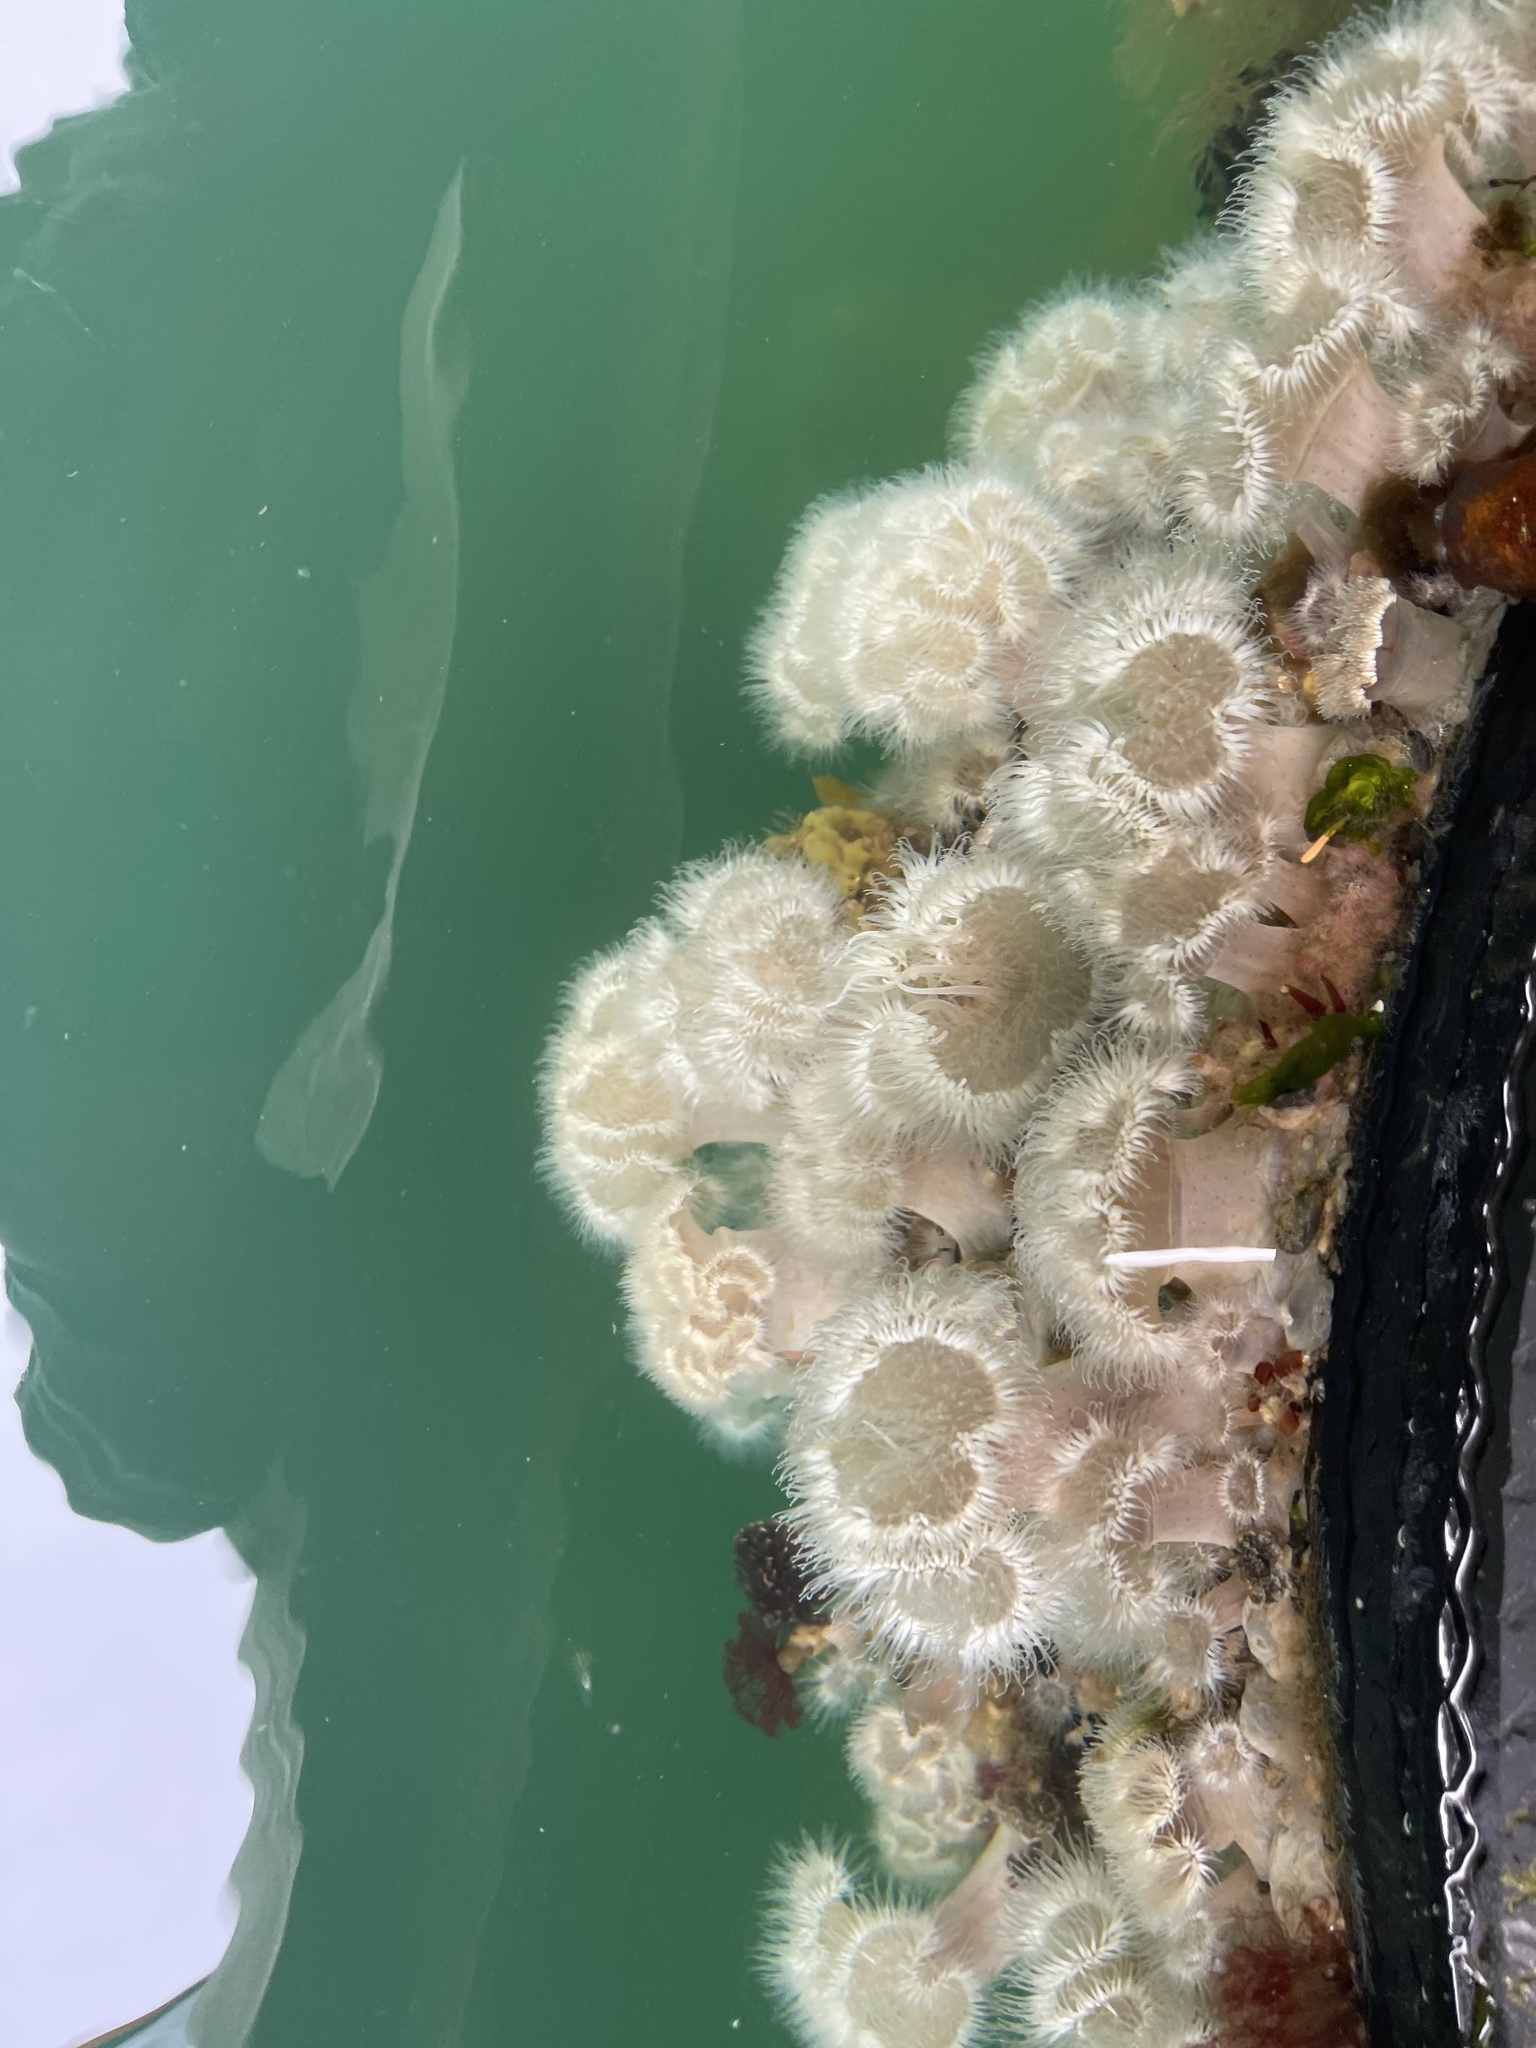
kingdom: Animalia
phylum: Cnidaria
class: Anthozoa
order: Actiniaria
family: Metridiidae
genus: Metridium
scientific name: Metridium senile
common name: Clonal plumose anemone
